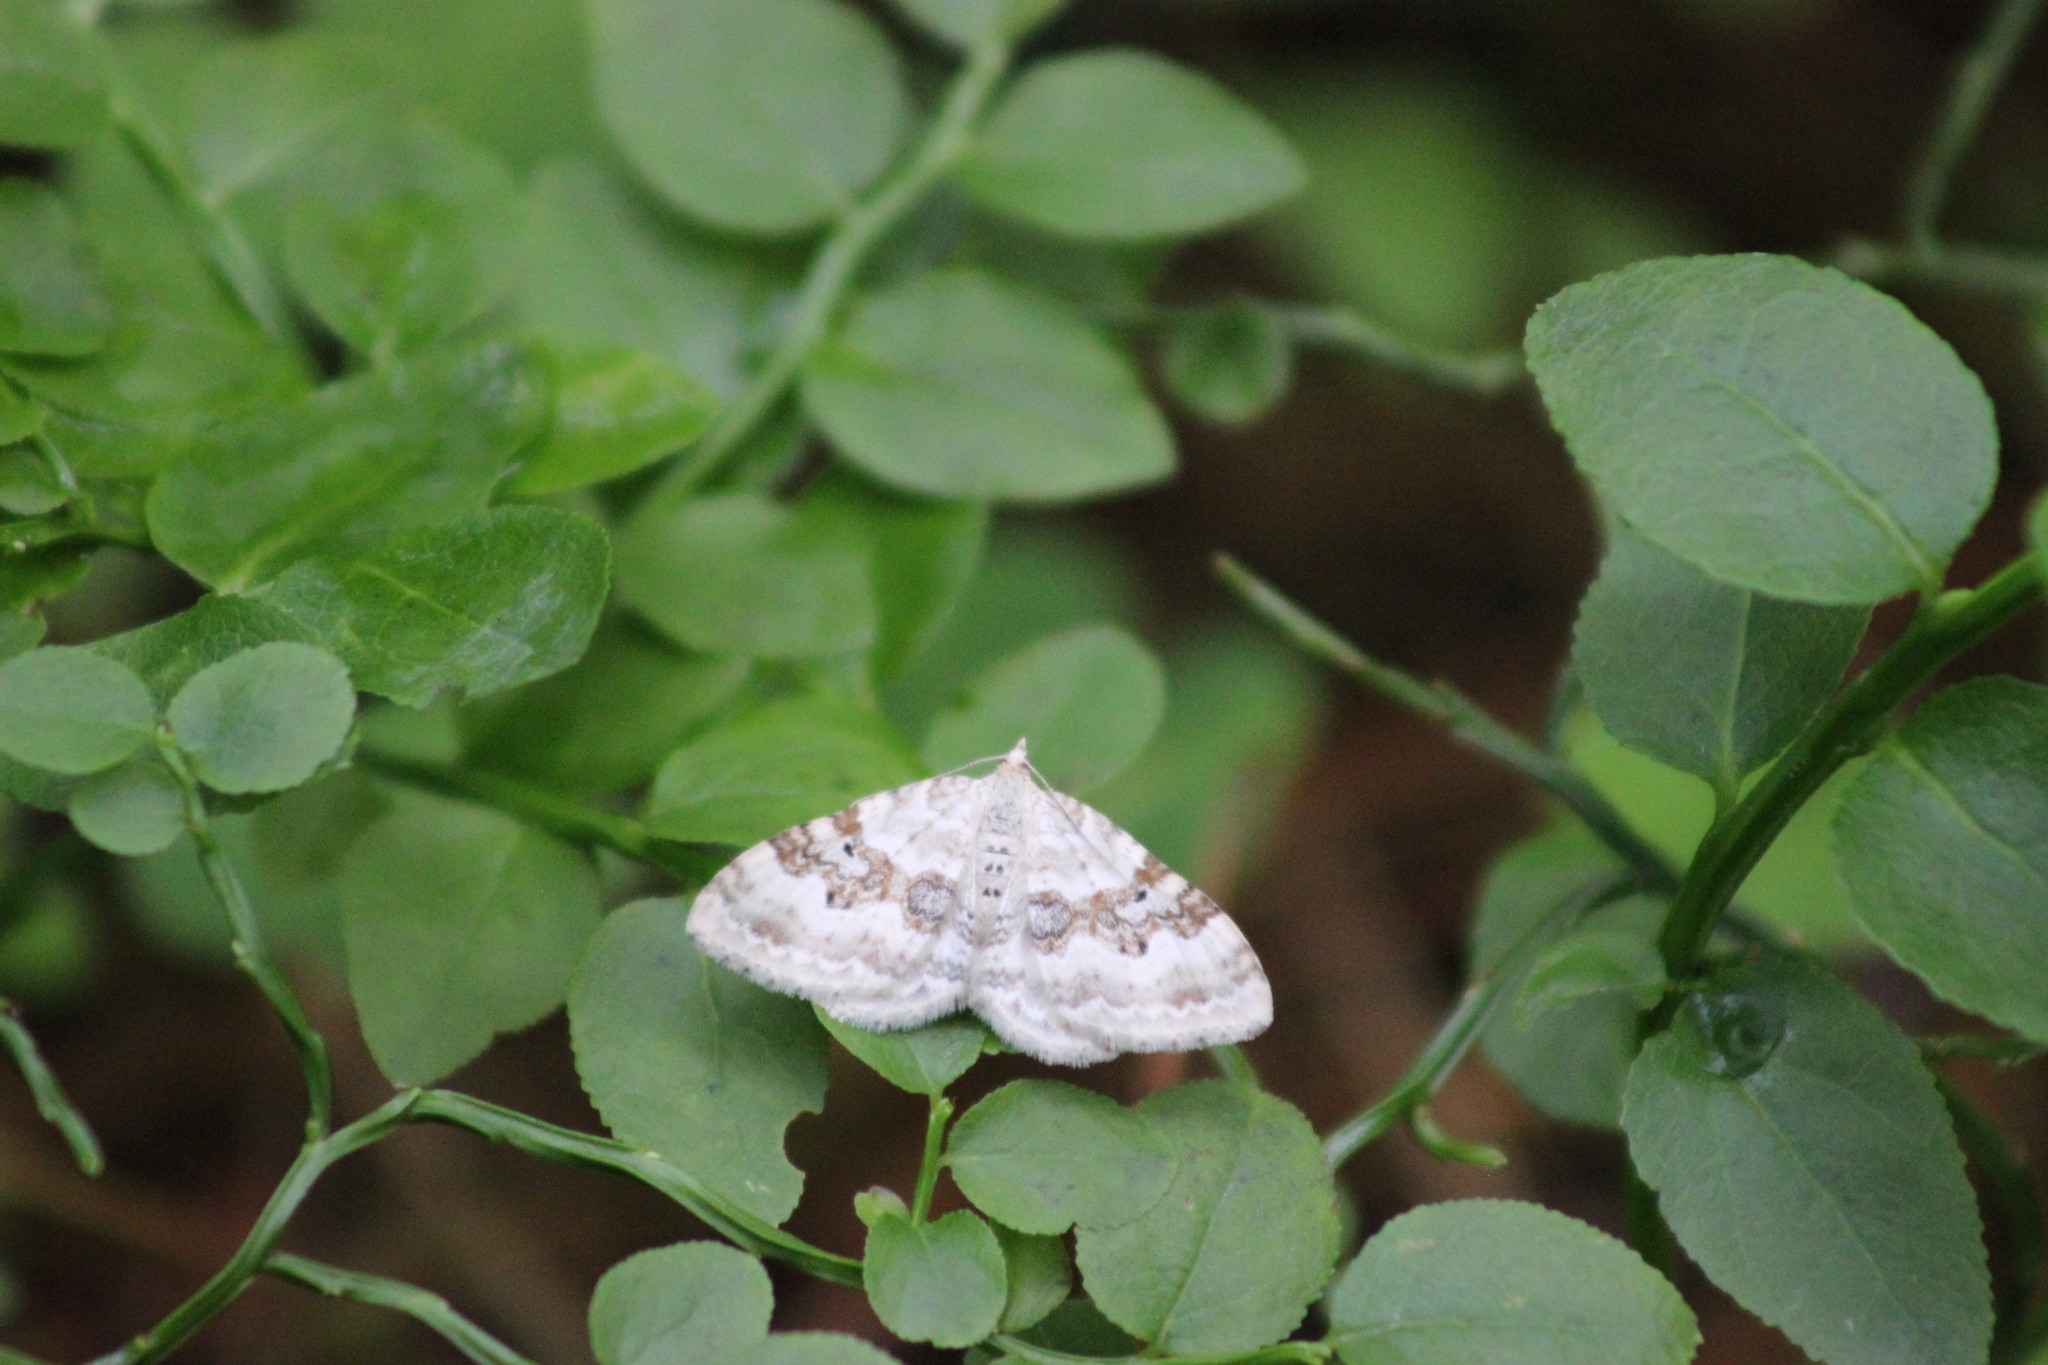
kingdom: Animalia
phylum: Arthropoda
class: Insecta
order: Lepidoptera
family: Geometridae
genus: Xanthorhoe
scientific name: Xanthorhoe montanata
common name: Silver-ground carpet
